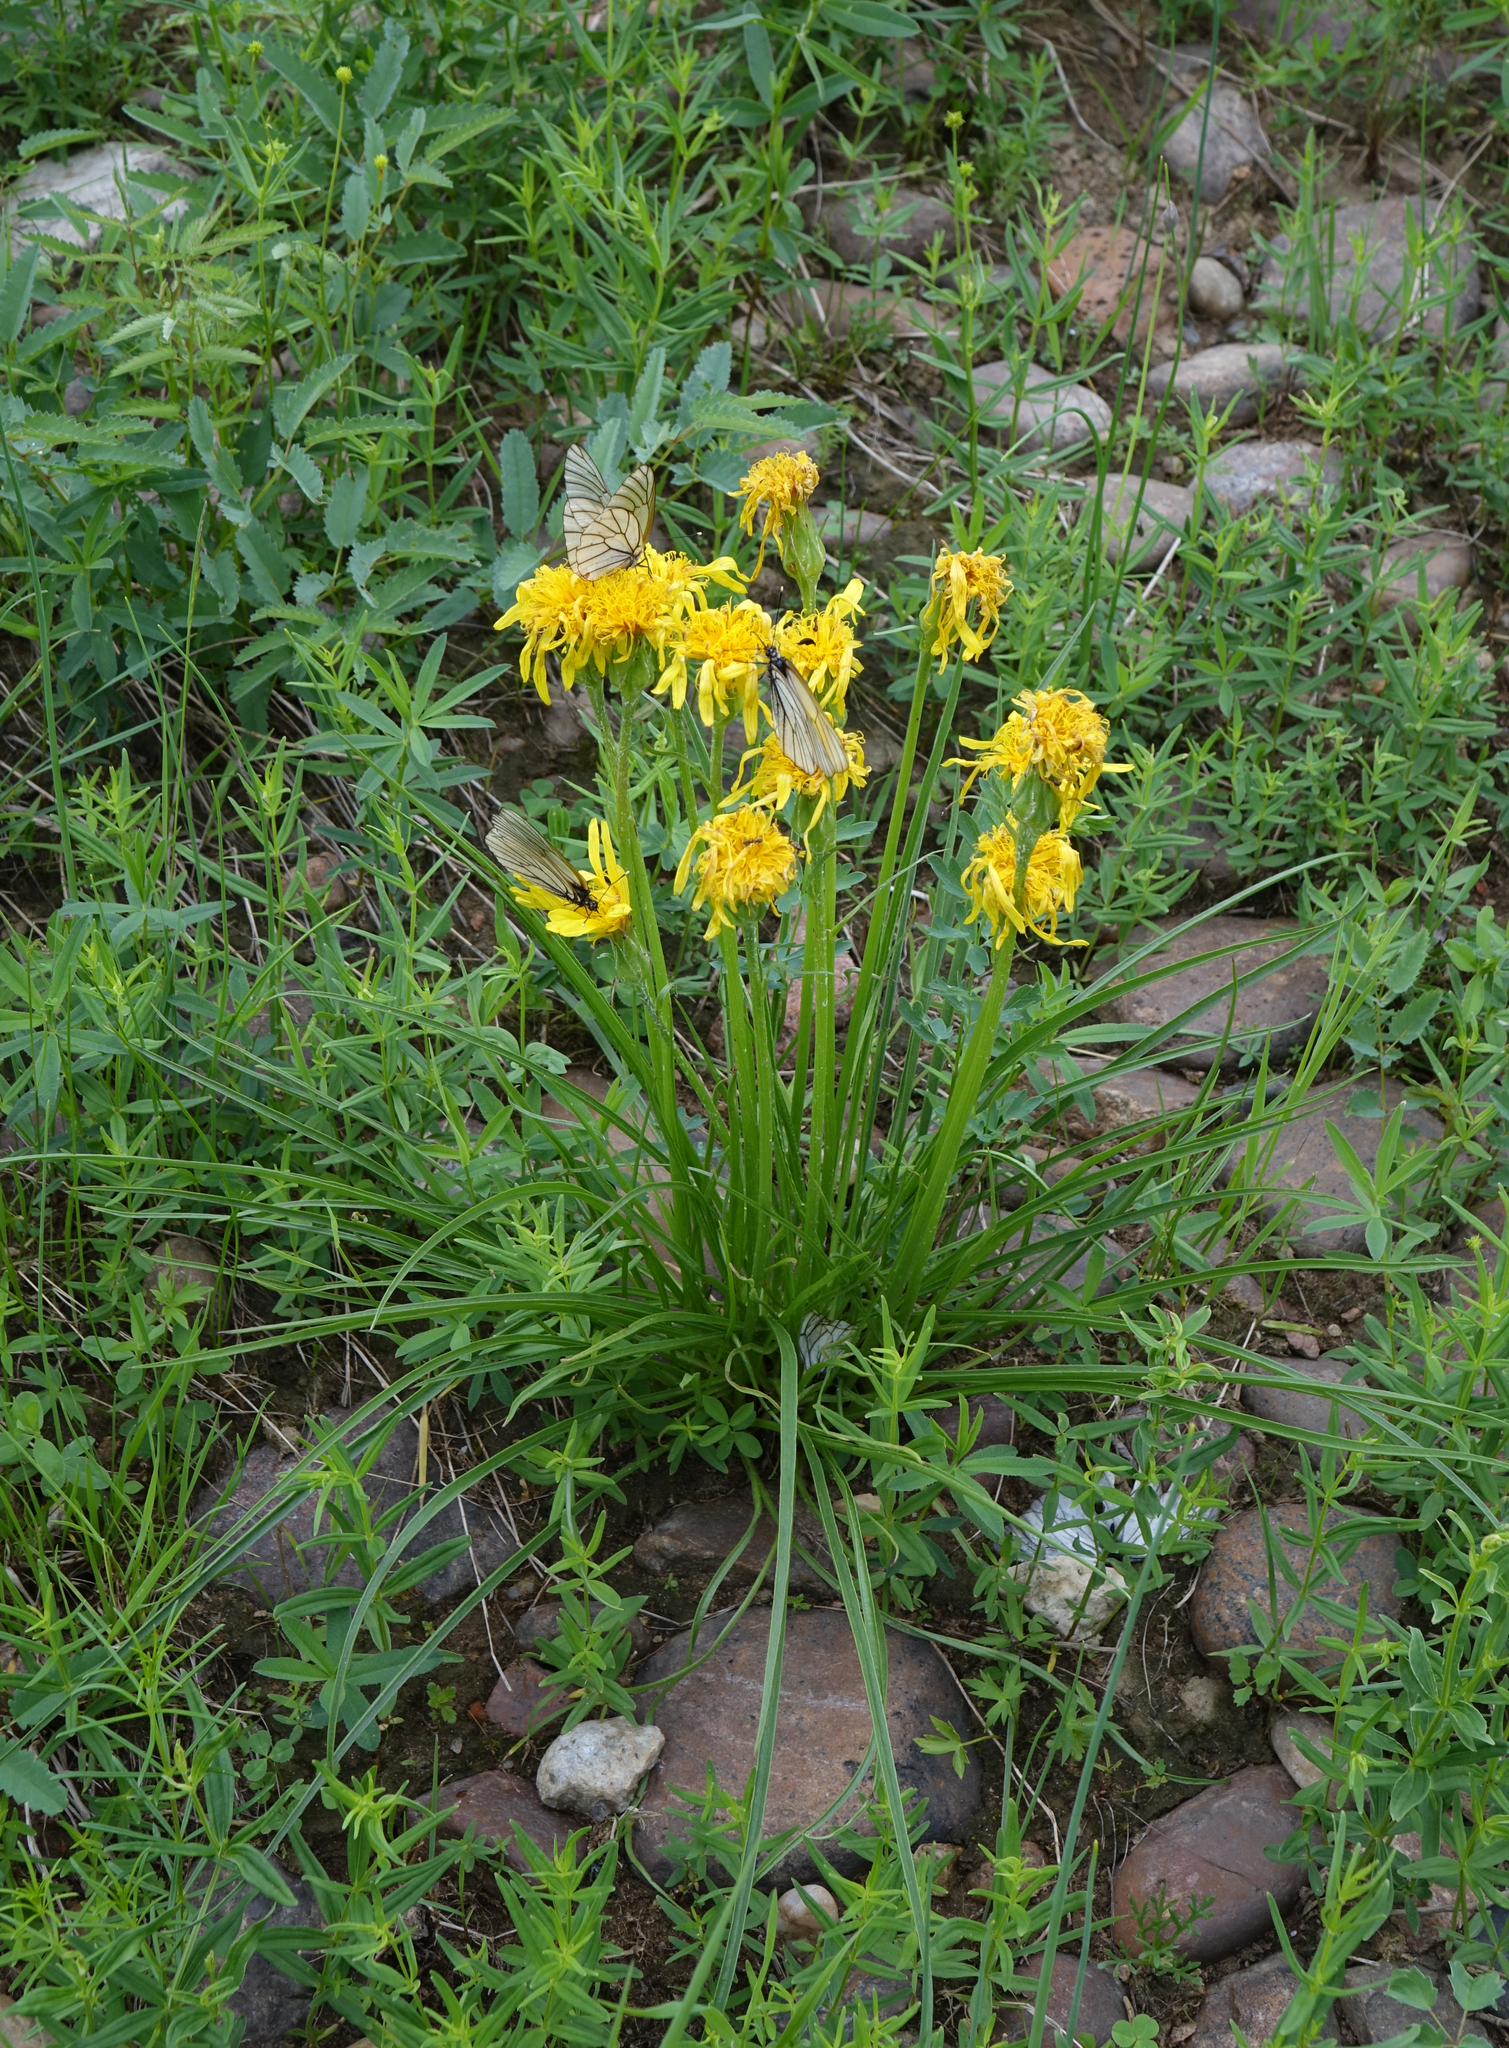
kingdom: Plantae
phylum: Tracheophyta
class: Magnoliopsida
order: Asterales
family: Asteraceae
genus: Scorzonera
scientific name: Scorzonera radiata
